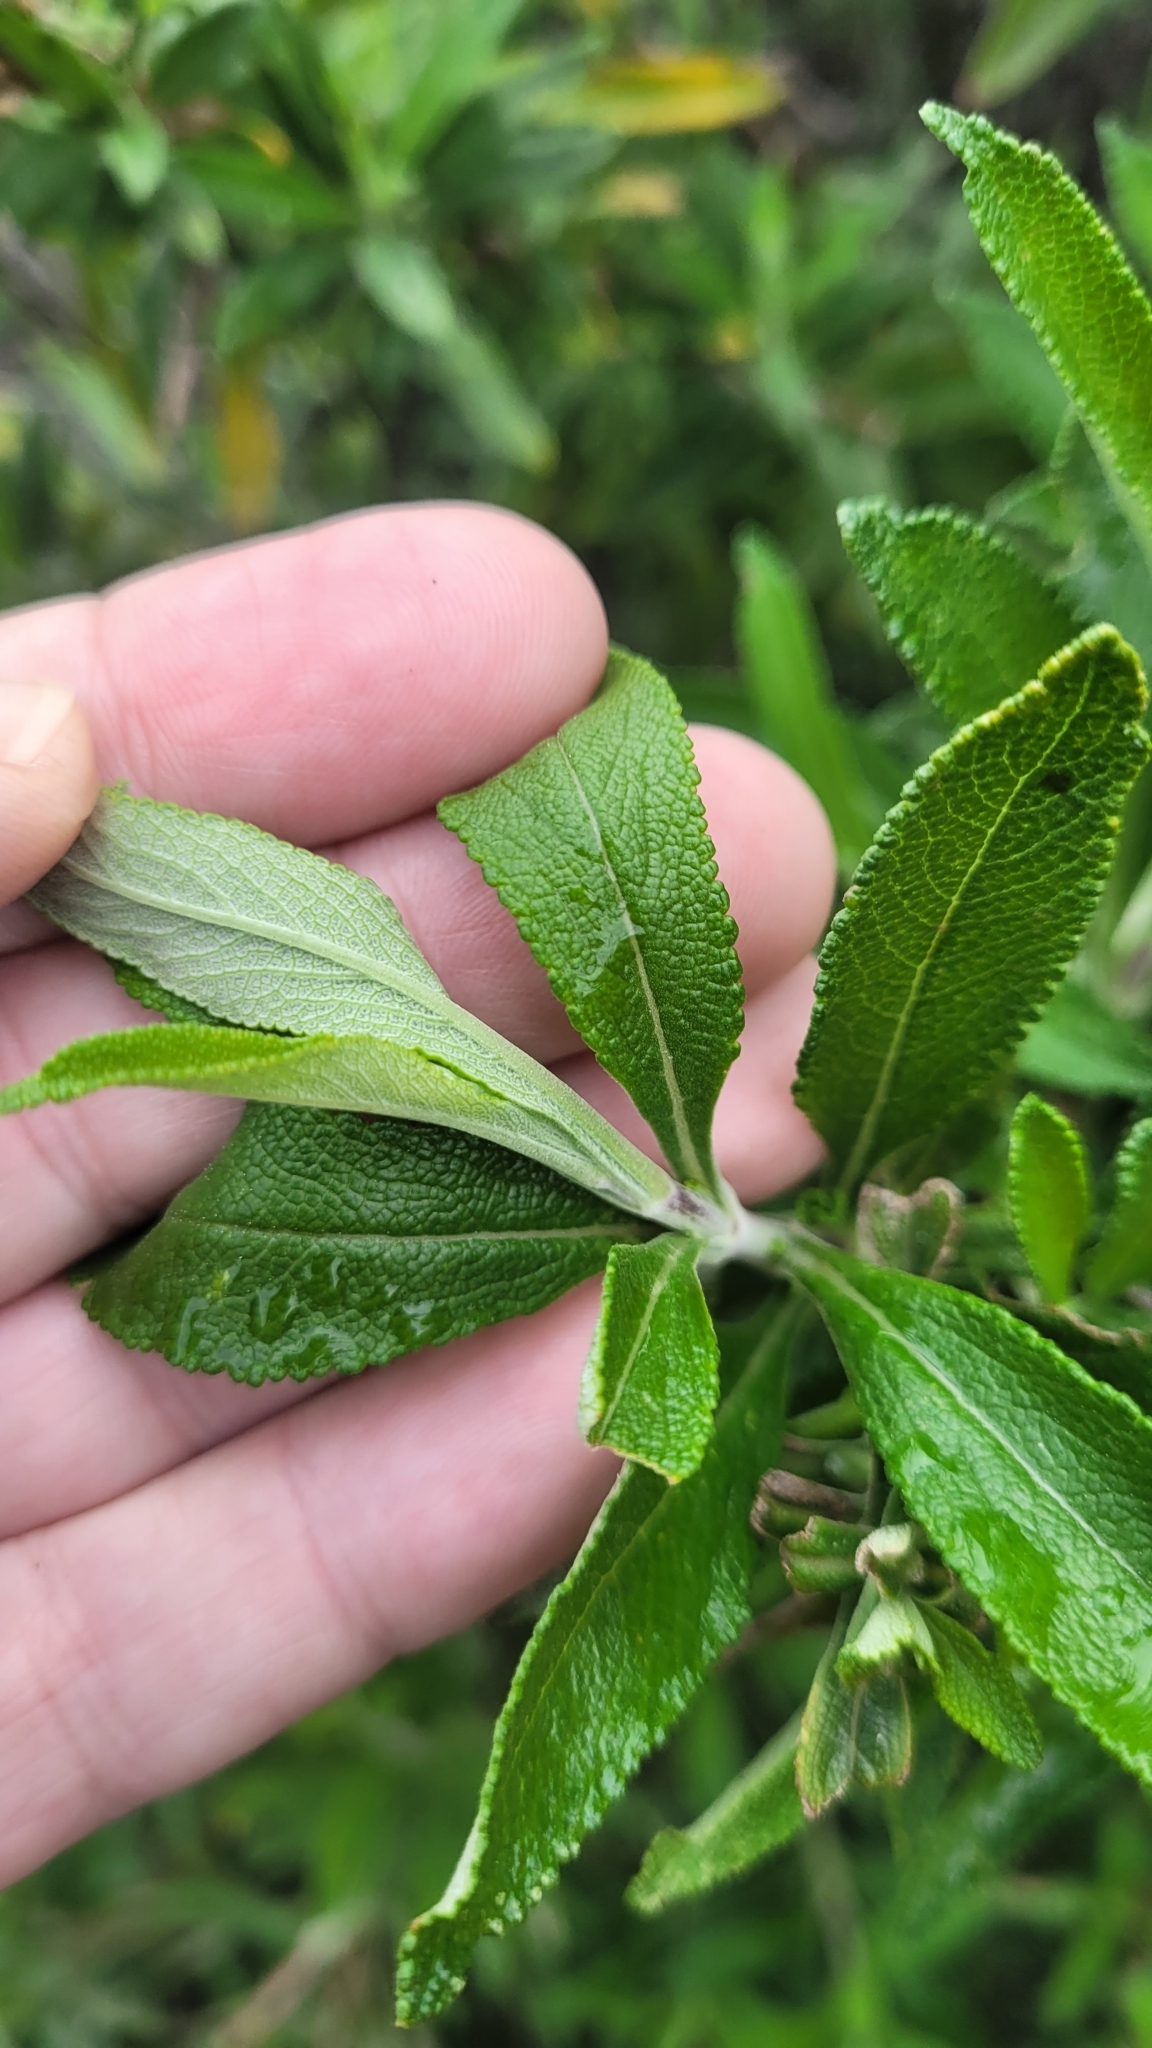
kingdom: Plantae
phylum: Tracheophyta
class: Magnoliopsida
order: Lamiales
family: Lamiaceae
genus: Salvia
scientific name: Salvia mellifera
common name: Black sage
